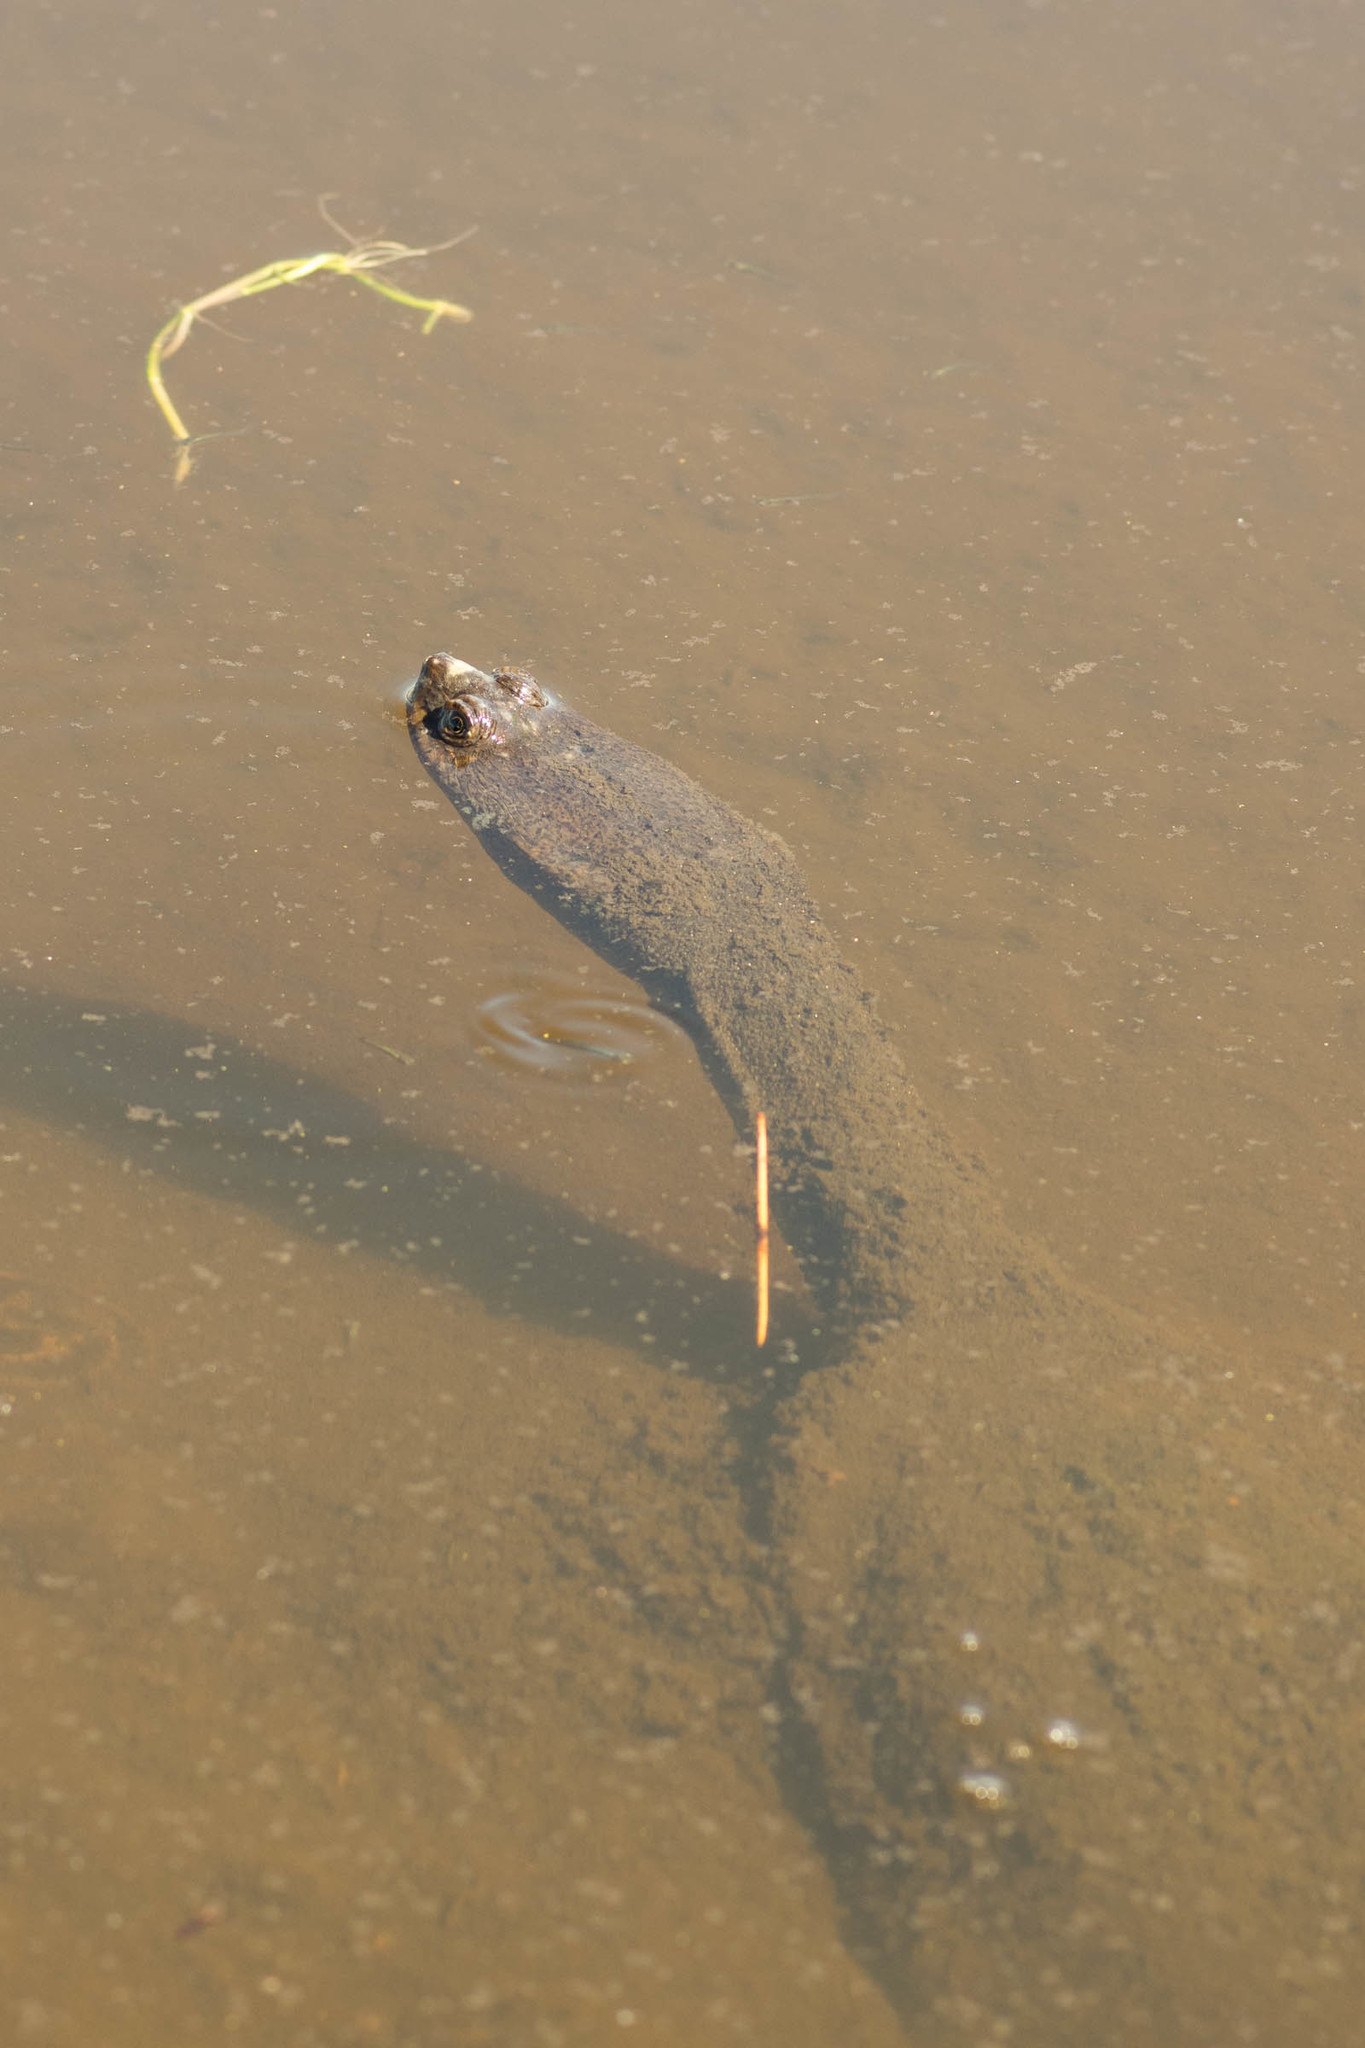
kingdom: Animalia
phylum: Chordata
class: Testudines
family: Chelidae
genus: Chelodina
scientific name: Chelodina oblonga
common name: Northern snake-necked turtle
